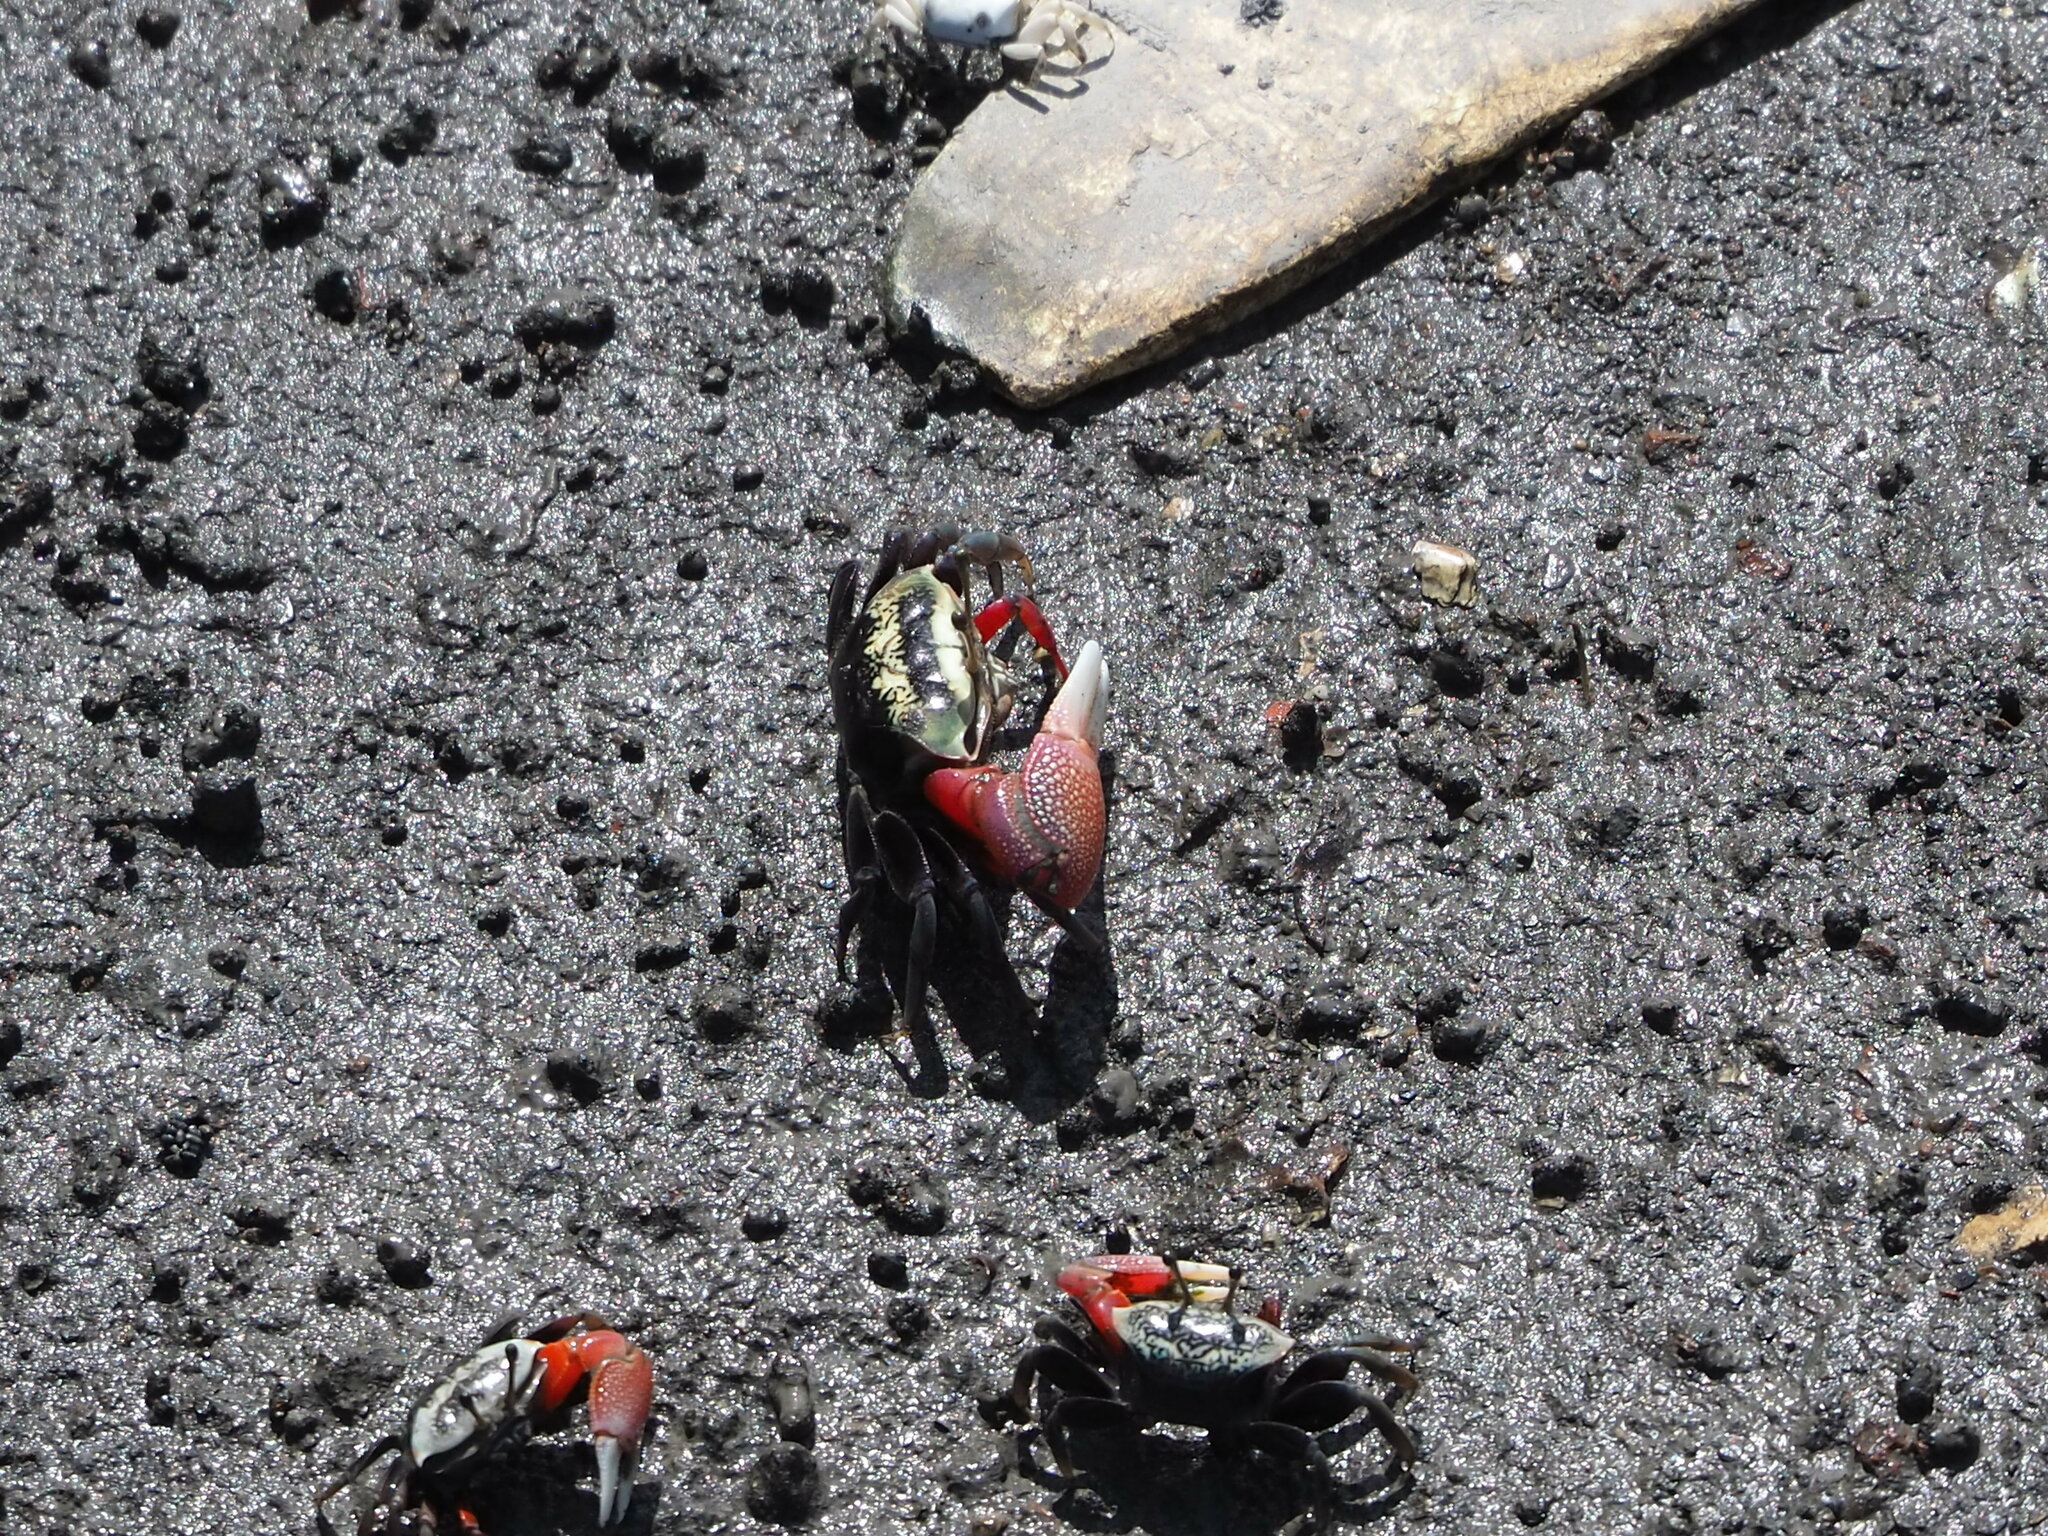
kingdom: Animalia
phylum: Arthropoda
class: Malacostraca
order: Decapoda
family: Ocypodidae
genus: Tubuca
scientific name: Tubuca arcuata
